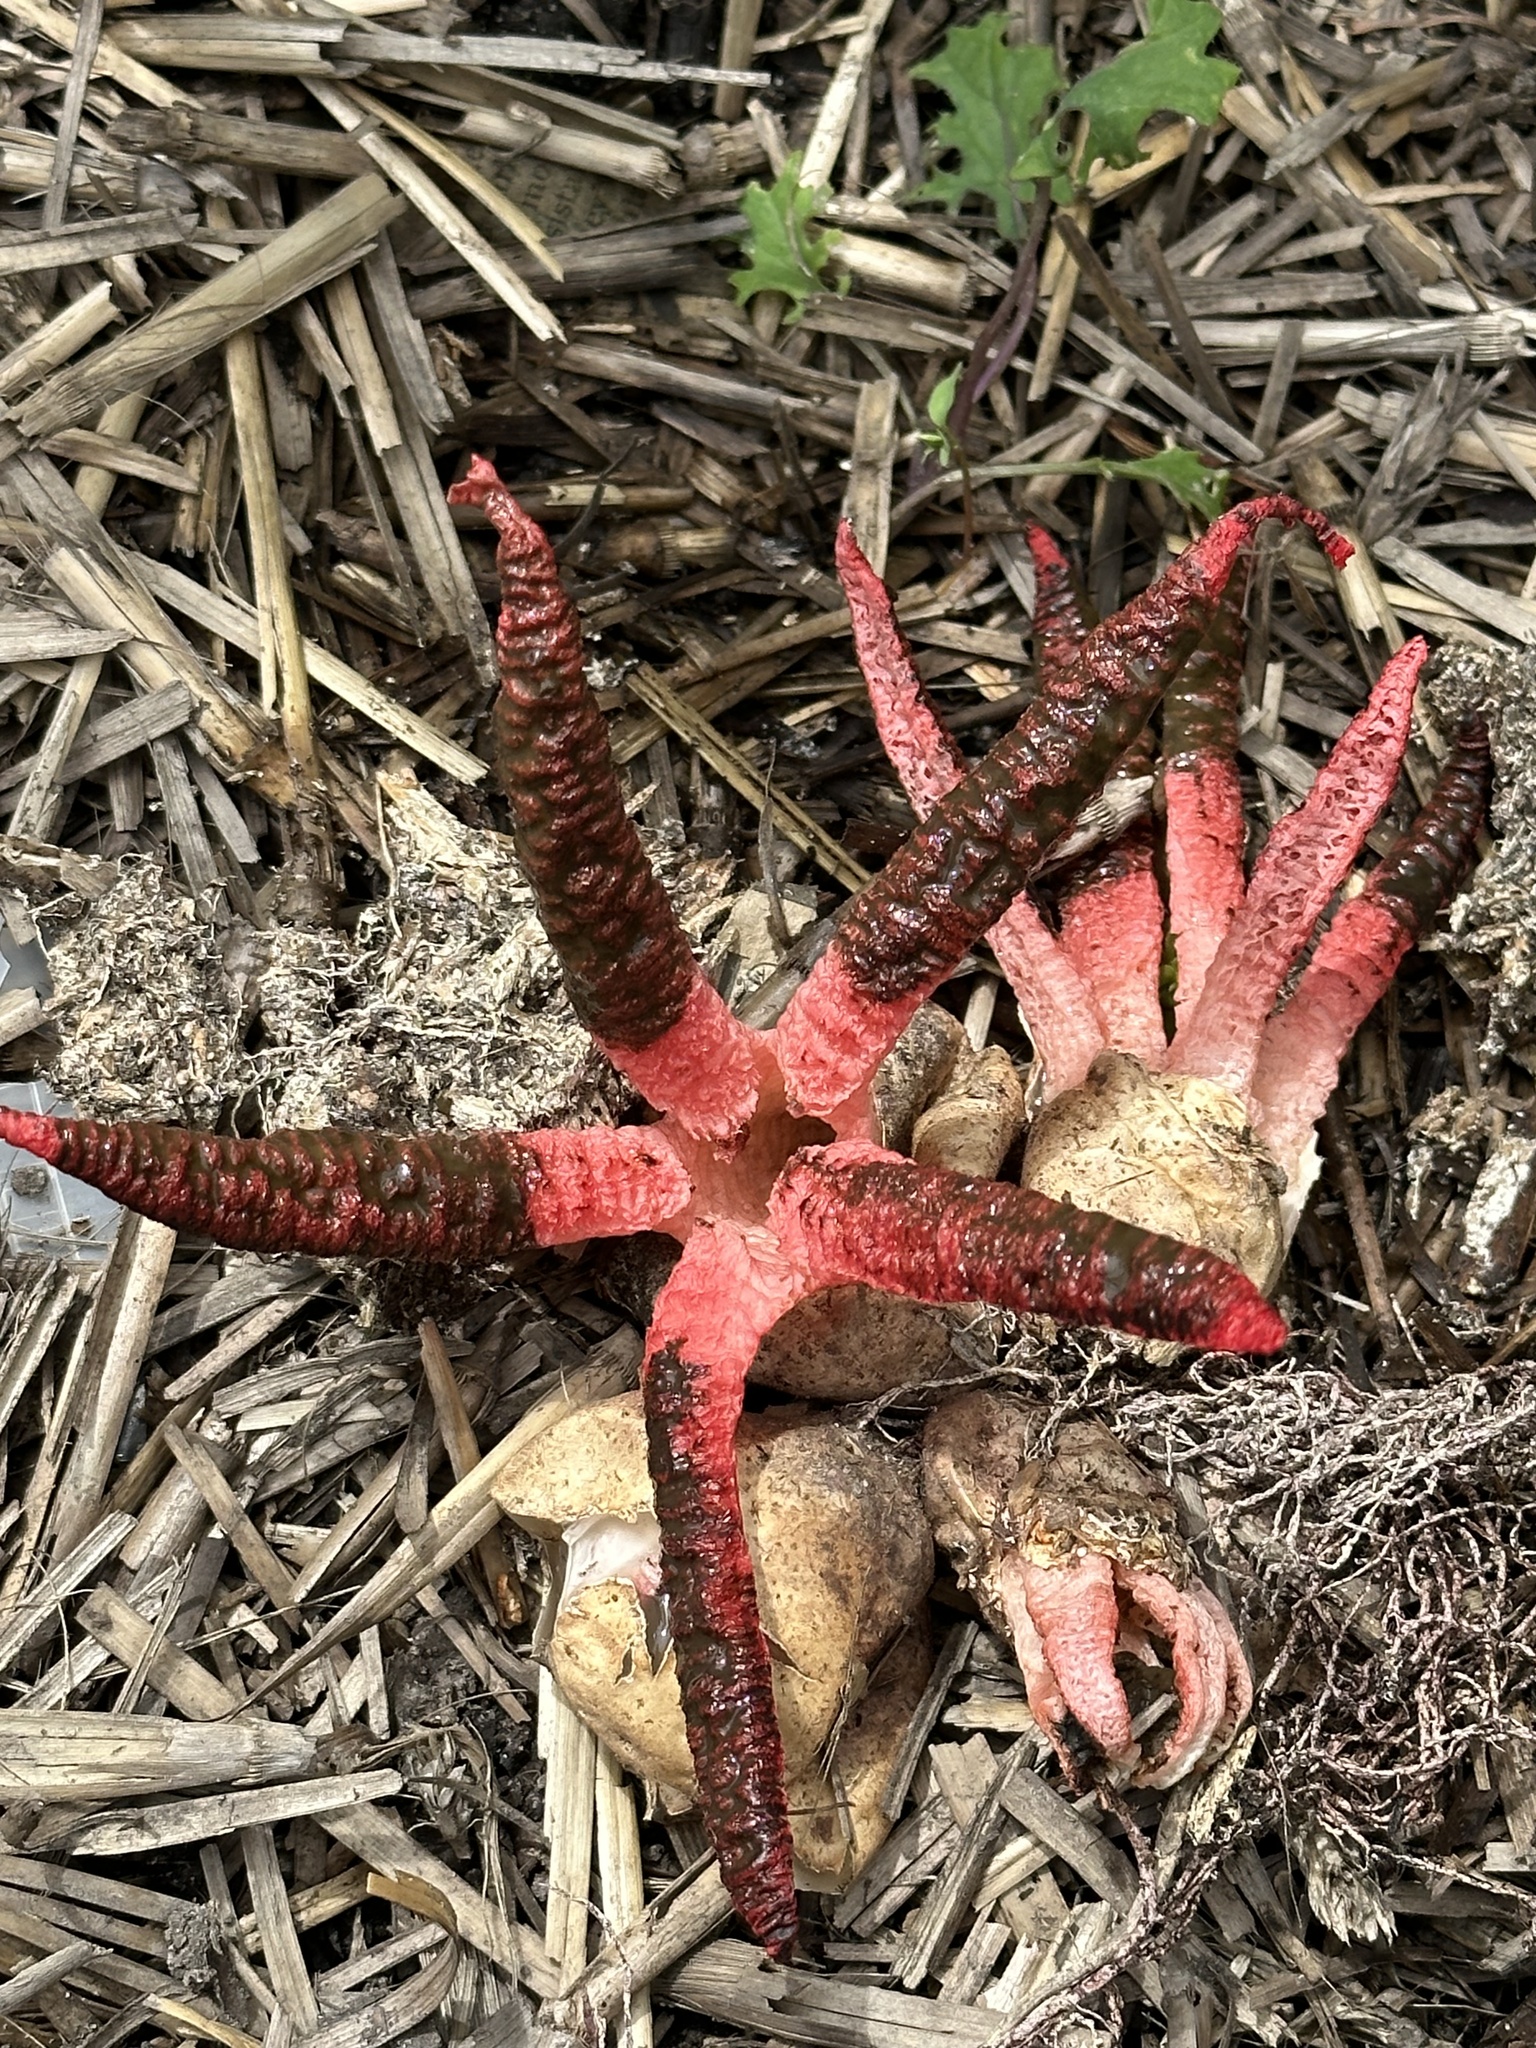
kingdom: Fungi
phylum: Basidiomycota
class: Agaricomycetes
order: Phallales
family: Phallaceae
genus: Clathrus
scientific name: Clathrus archeri
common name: Devil's fingers
